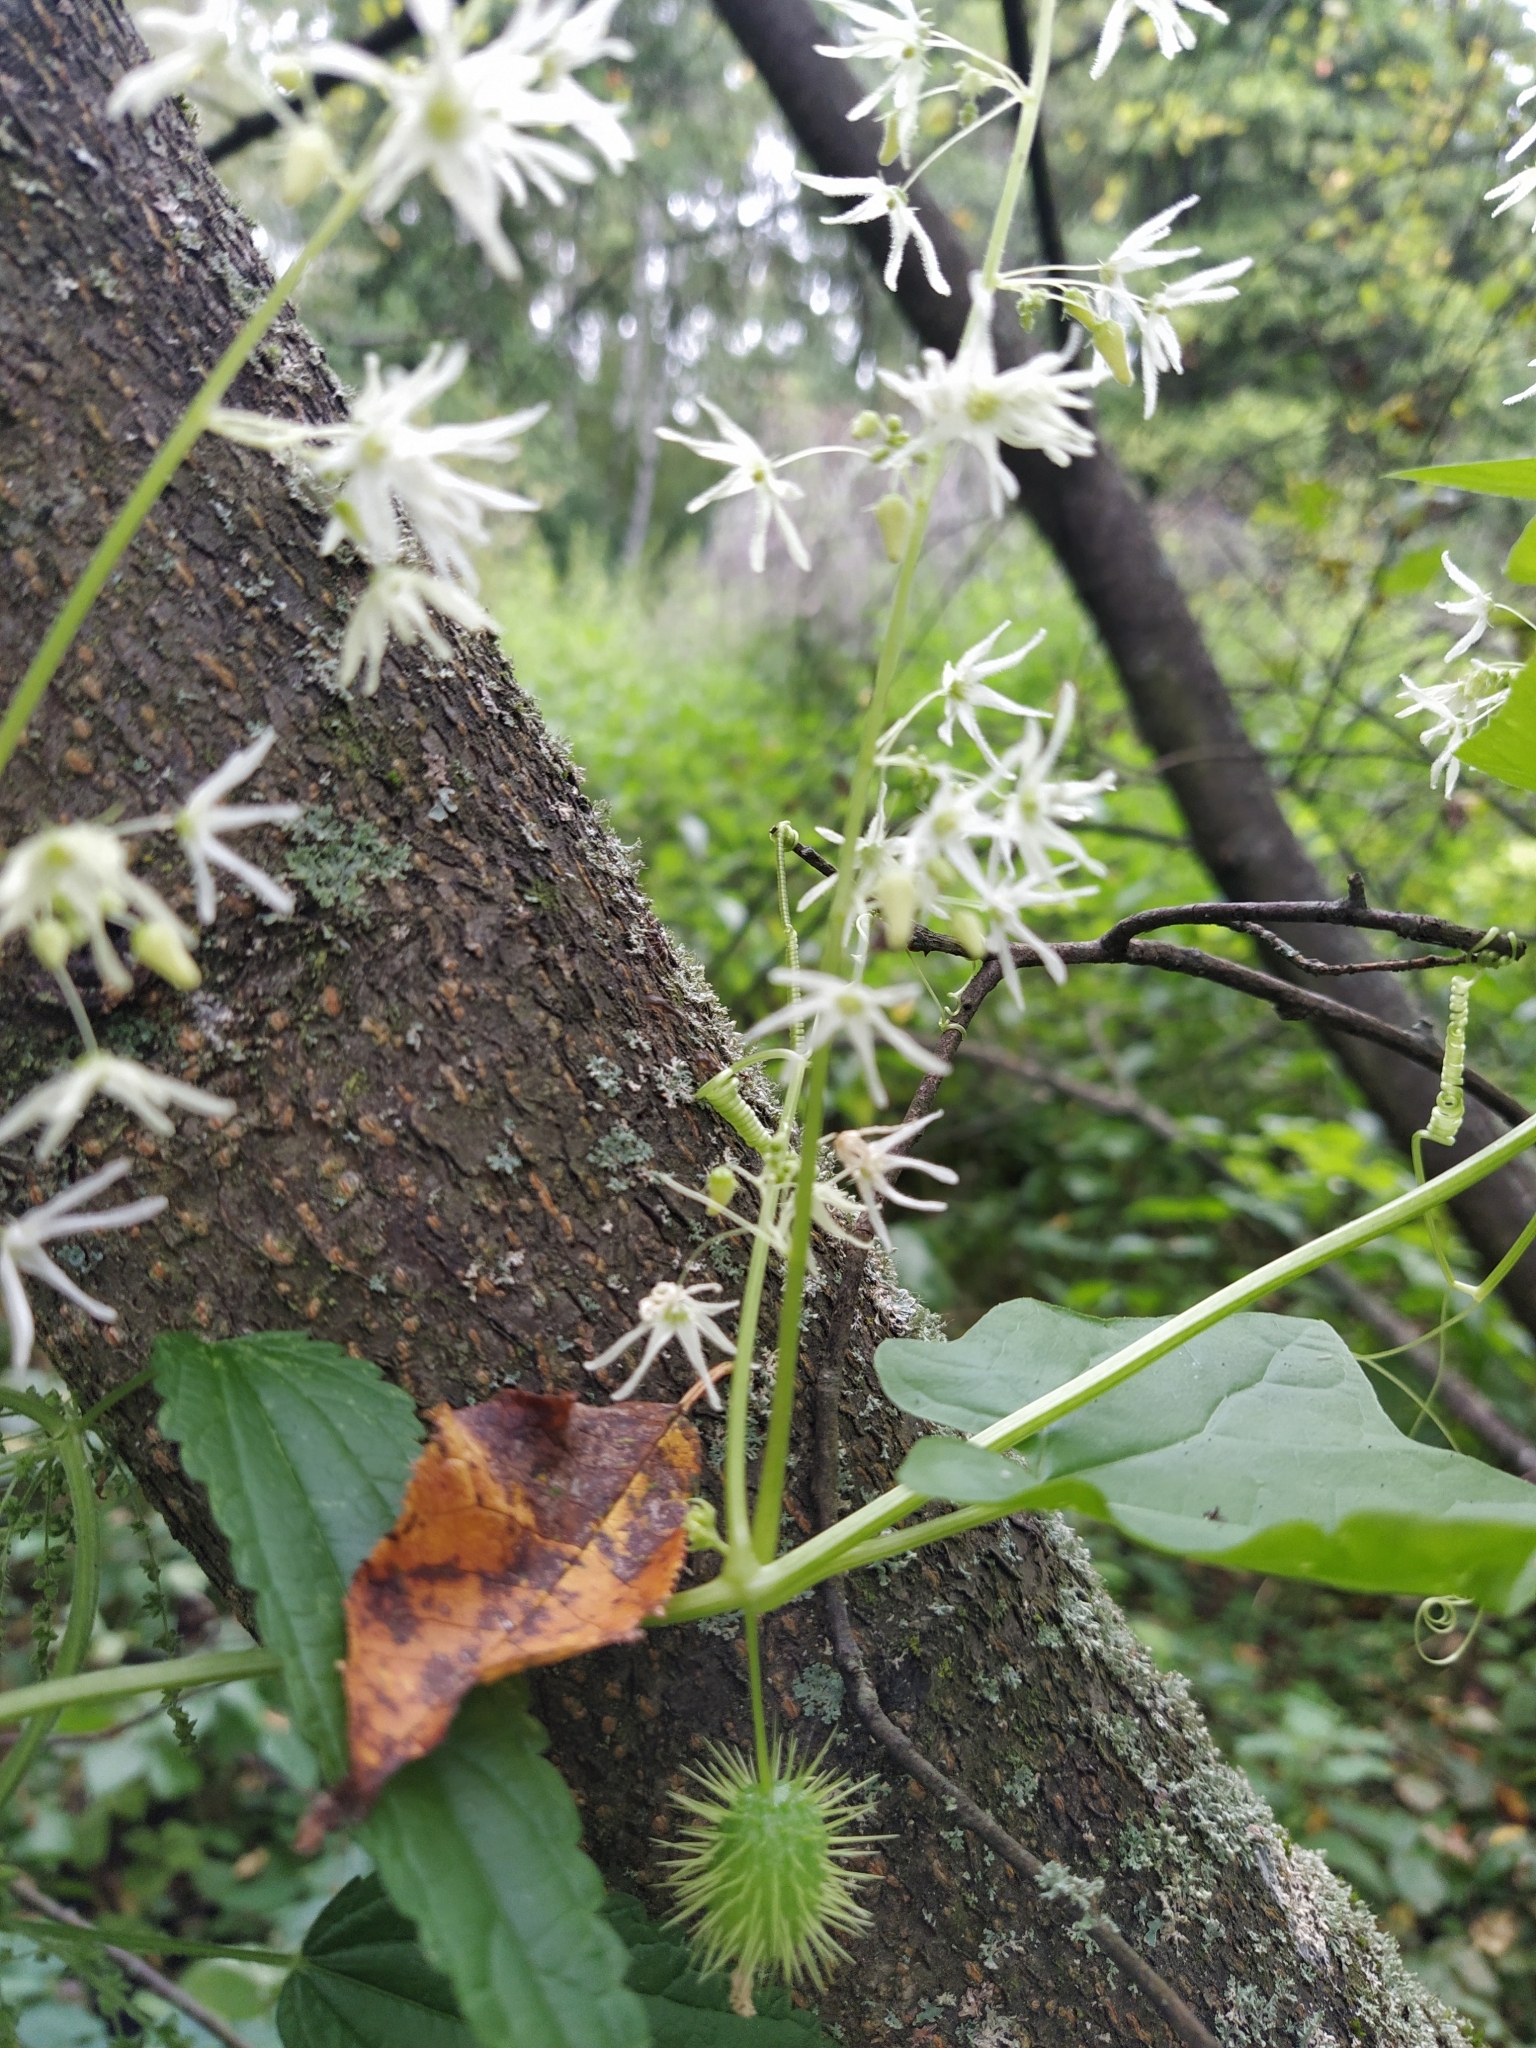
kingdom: Plantae
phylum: Tracheophyta
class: Magnoliopsida
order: Cucurbitales
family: Cucurbitaceae
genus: Echinocystis
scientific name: Echinocystis lobata
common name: Wild cucumber
